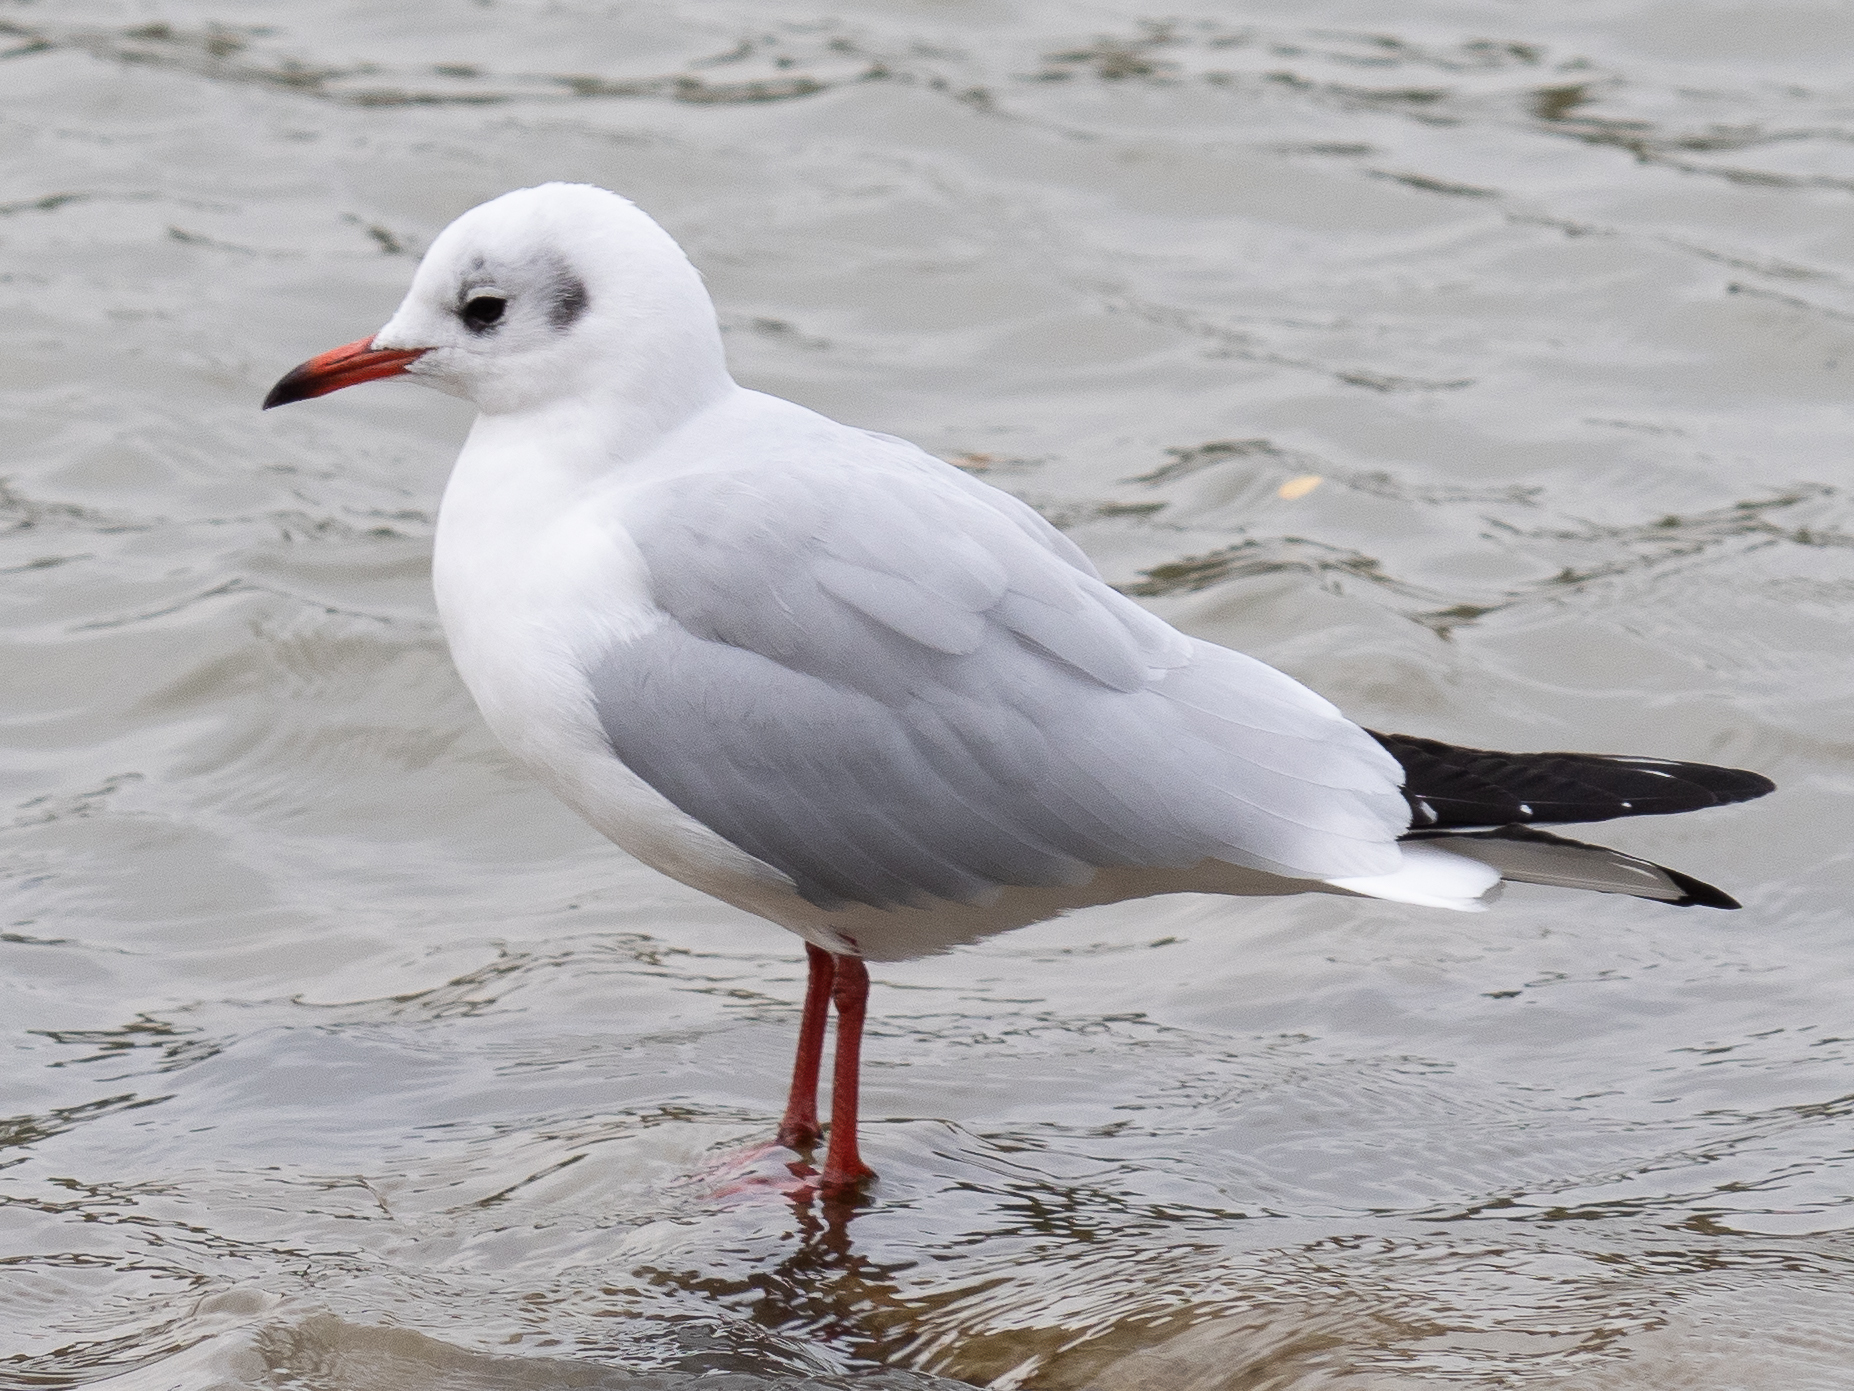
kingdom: Animalia
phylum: Chordata
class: Aves
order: Charadriiformes
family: Laridae
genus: Chroicocephalus
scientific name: Chroicocephalus ridibundus
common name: Black-headed gull
